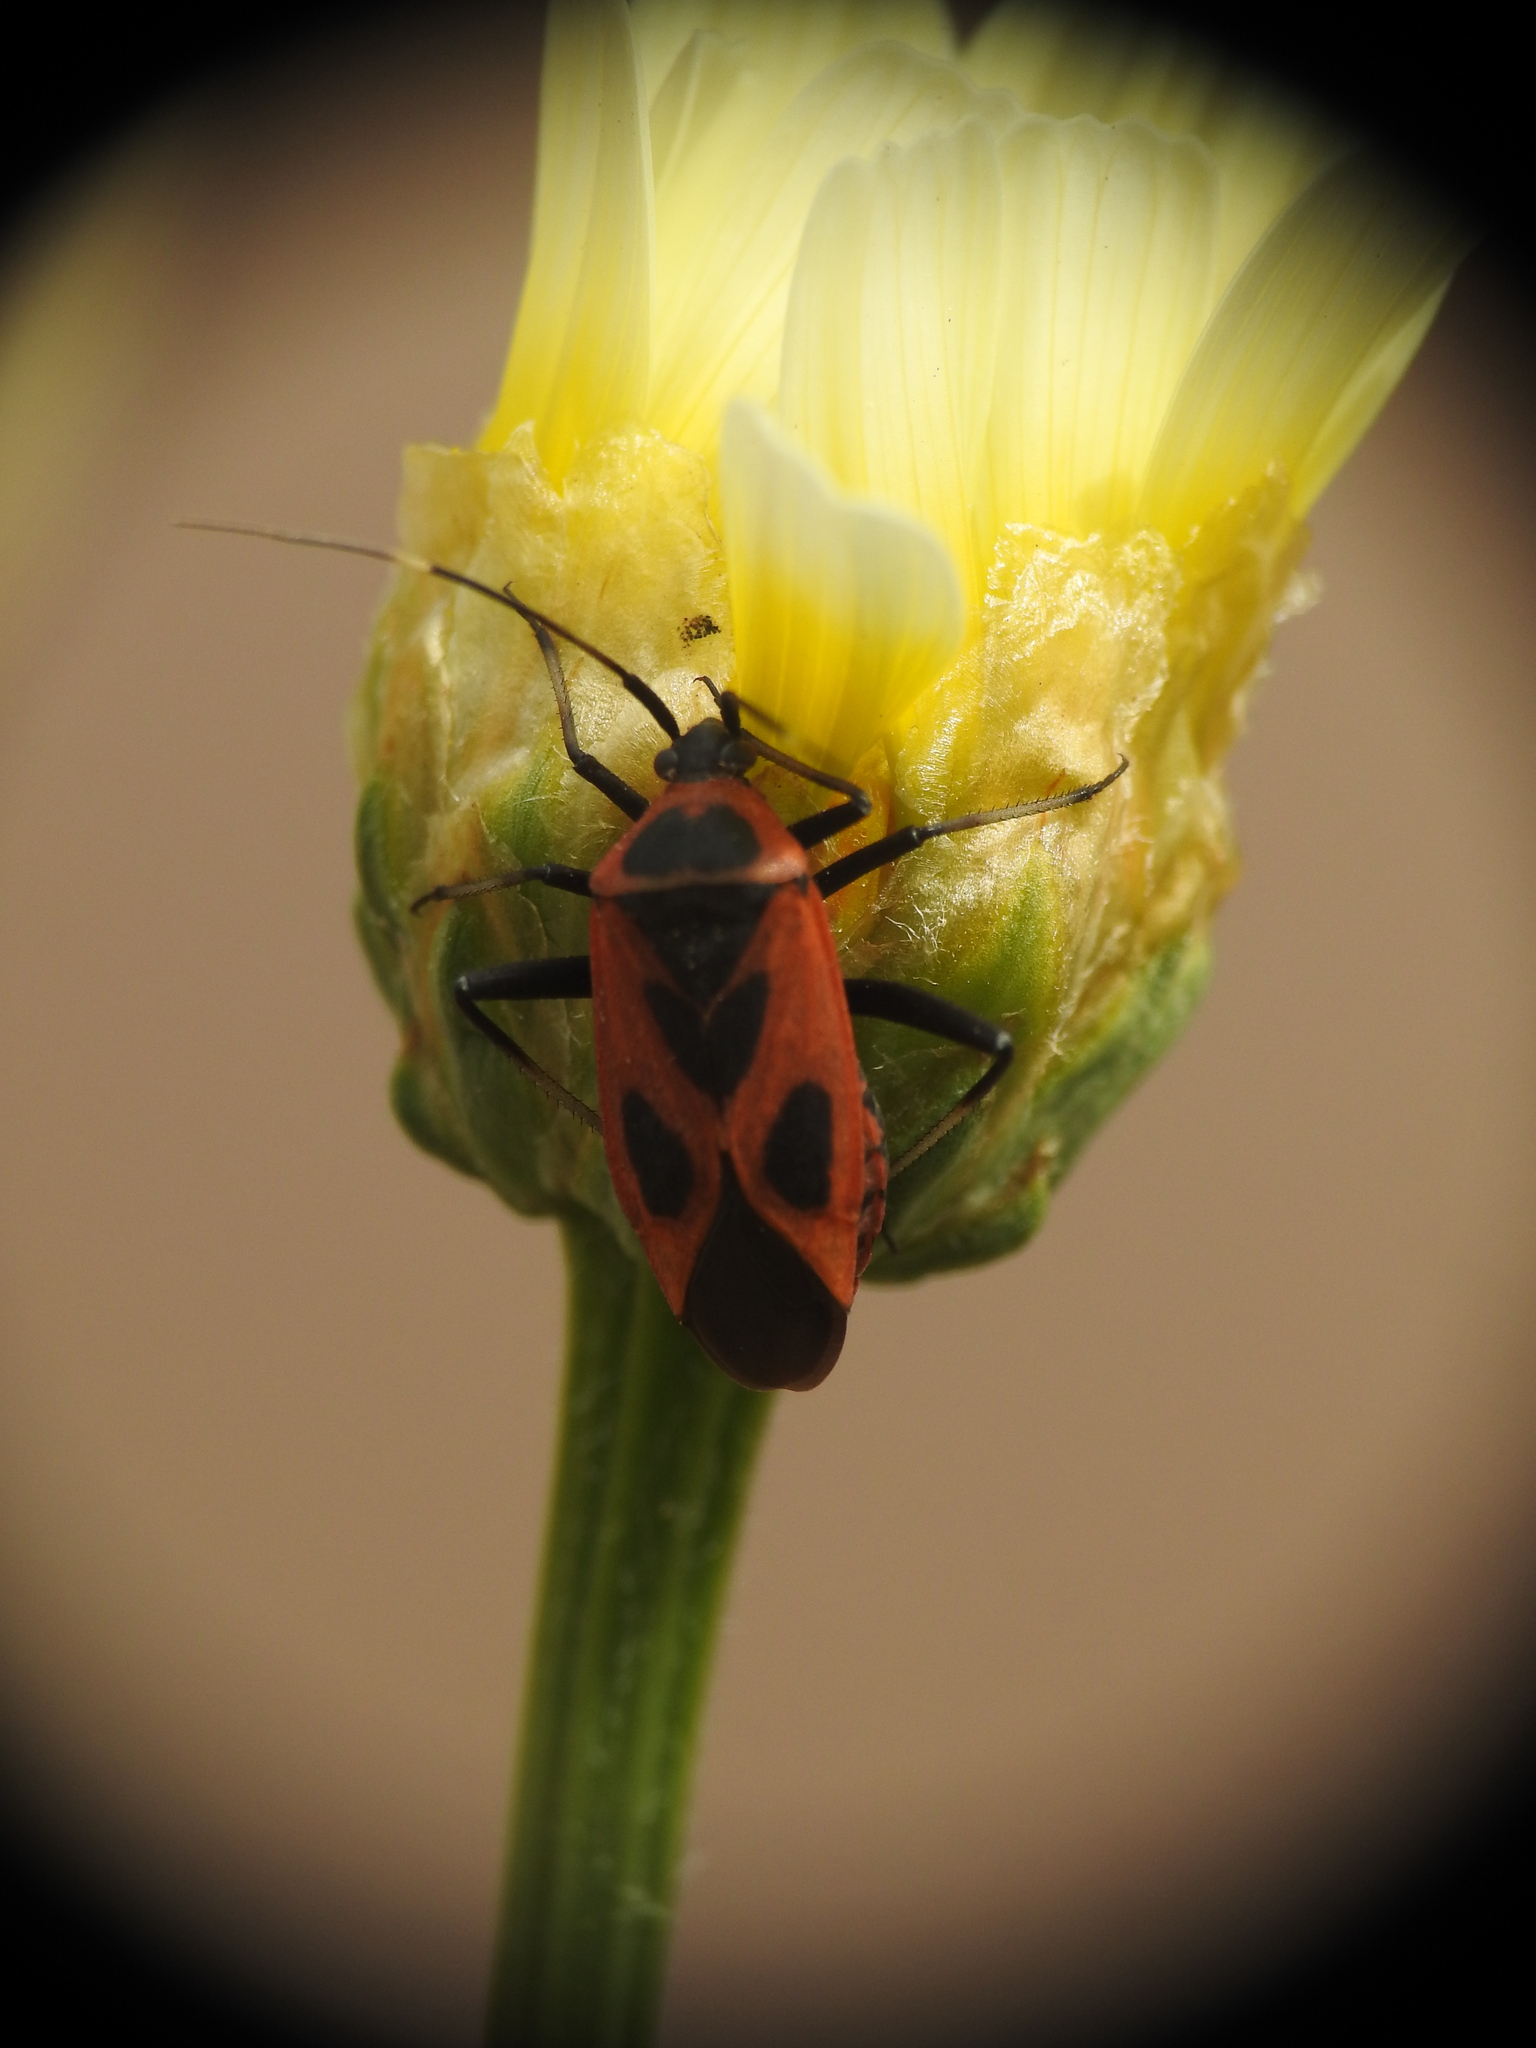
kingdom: Animalia
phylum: Arthropoda
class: Insecta
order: Hemiptera
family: Miridae
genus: Calocoris
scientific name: Calocoris nemoralis
